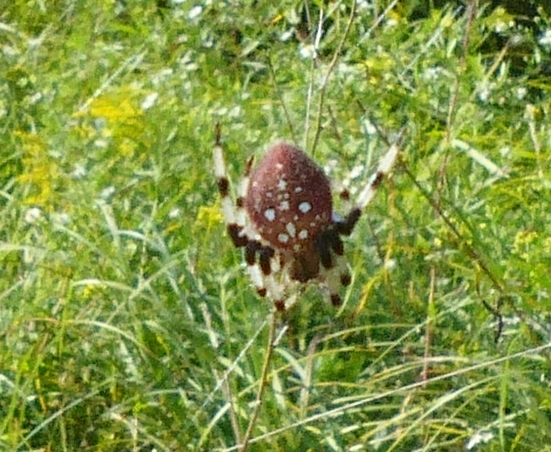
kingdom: Animalia
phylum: Arthropoda
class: Arachnida
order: Araneae
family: Araneidae
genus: Araneus
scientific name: Araneus trifolium
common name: Shamrock orbweaver
